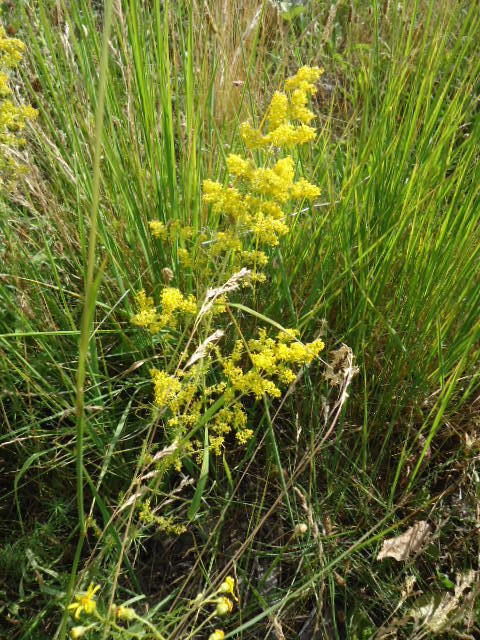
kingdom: Plantae
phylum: Tracheophyta
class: Magnoliopsida
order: Gentianales
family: Rubiaceae
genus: Galium
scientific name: Galium verum
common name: Lady's bedstraw
